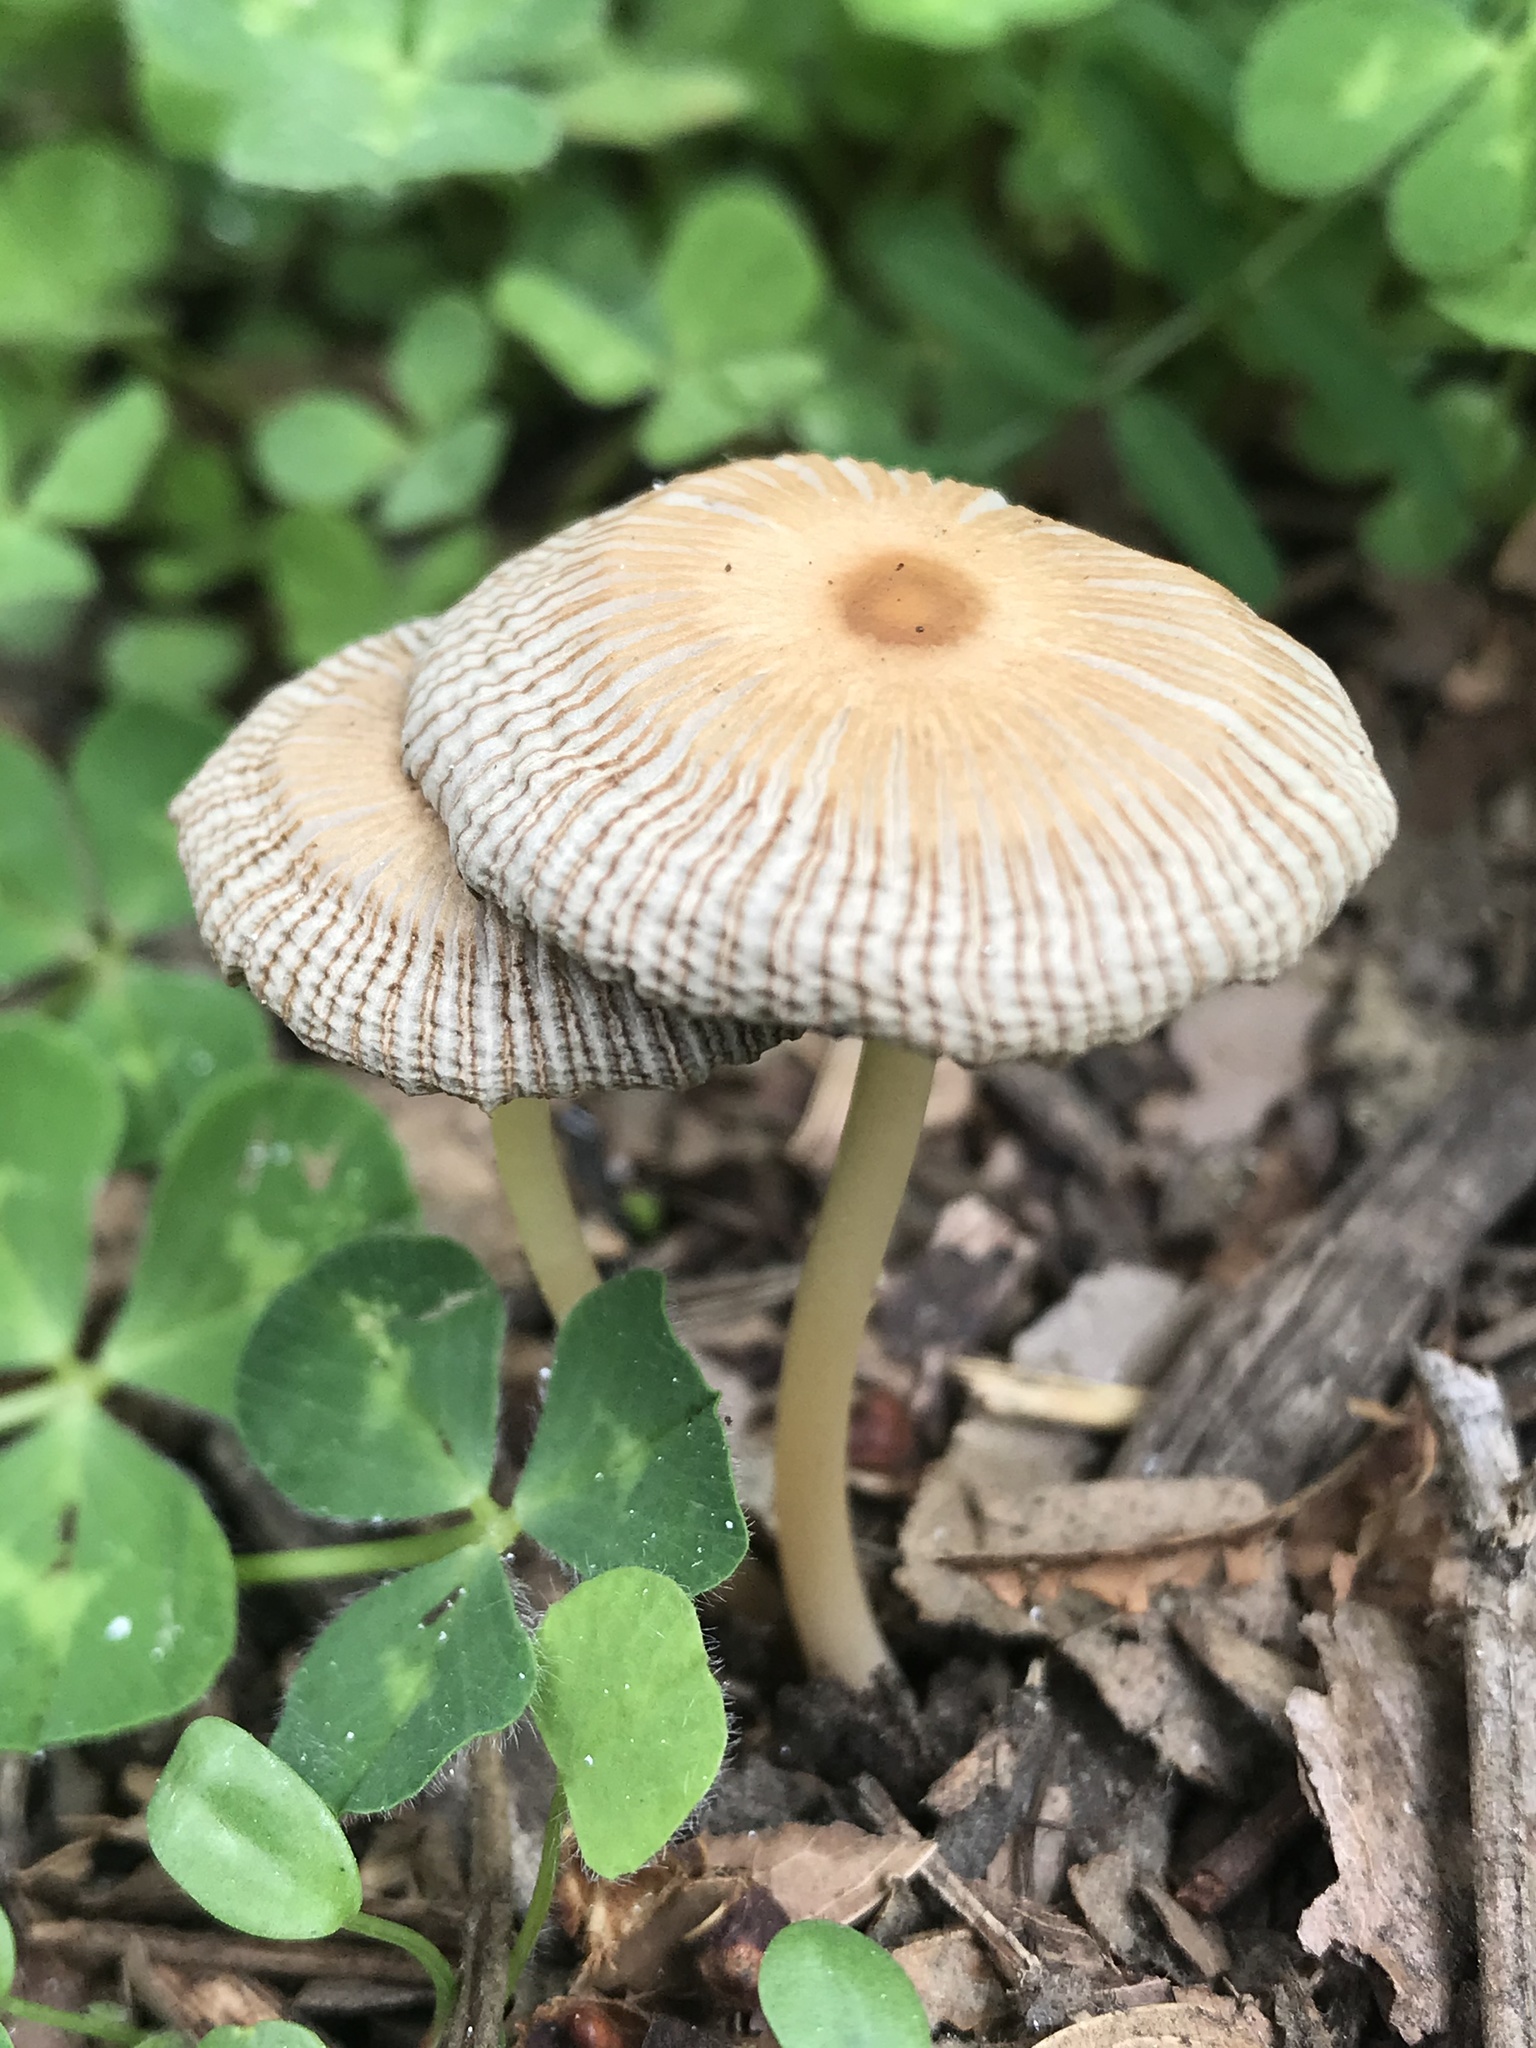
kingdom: Fungi
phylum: Basidiomycota
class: Agaricomycetes
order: Agaricales
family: Psathyrellaceae
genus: Parasola
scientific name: Parasola auricoma
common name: Goldenhaired inkcap
